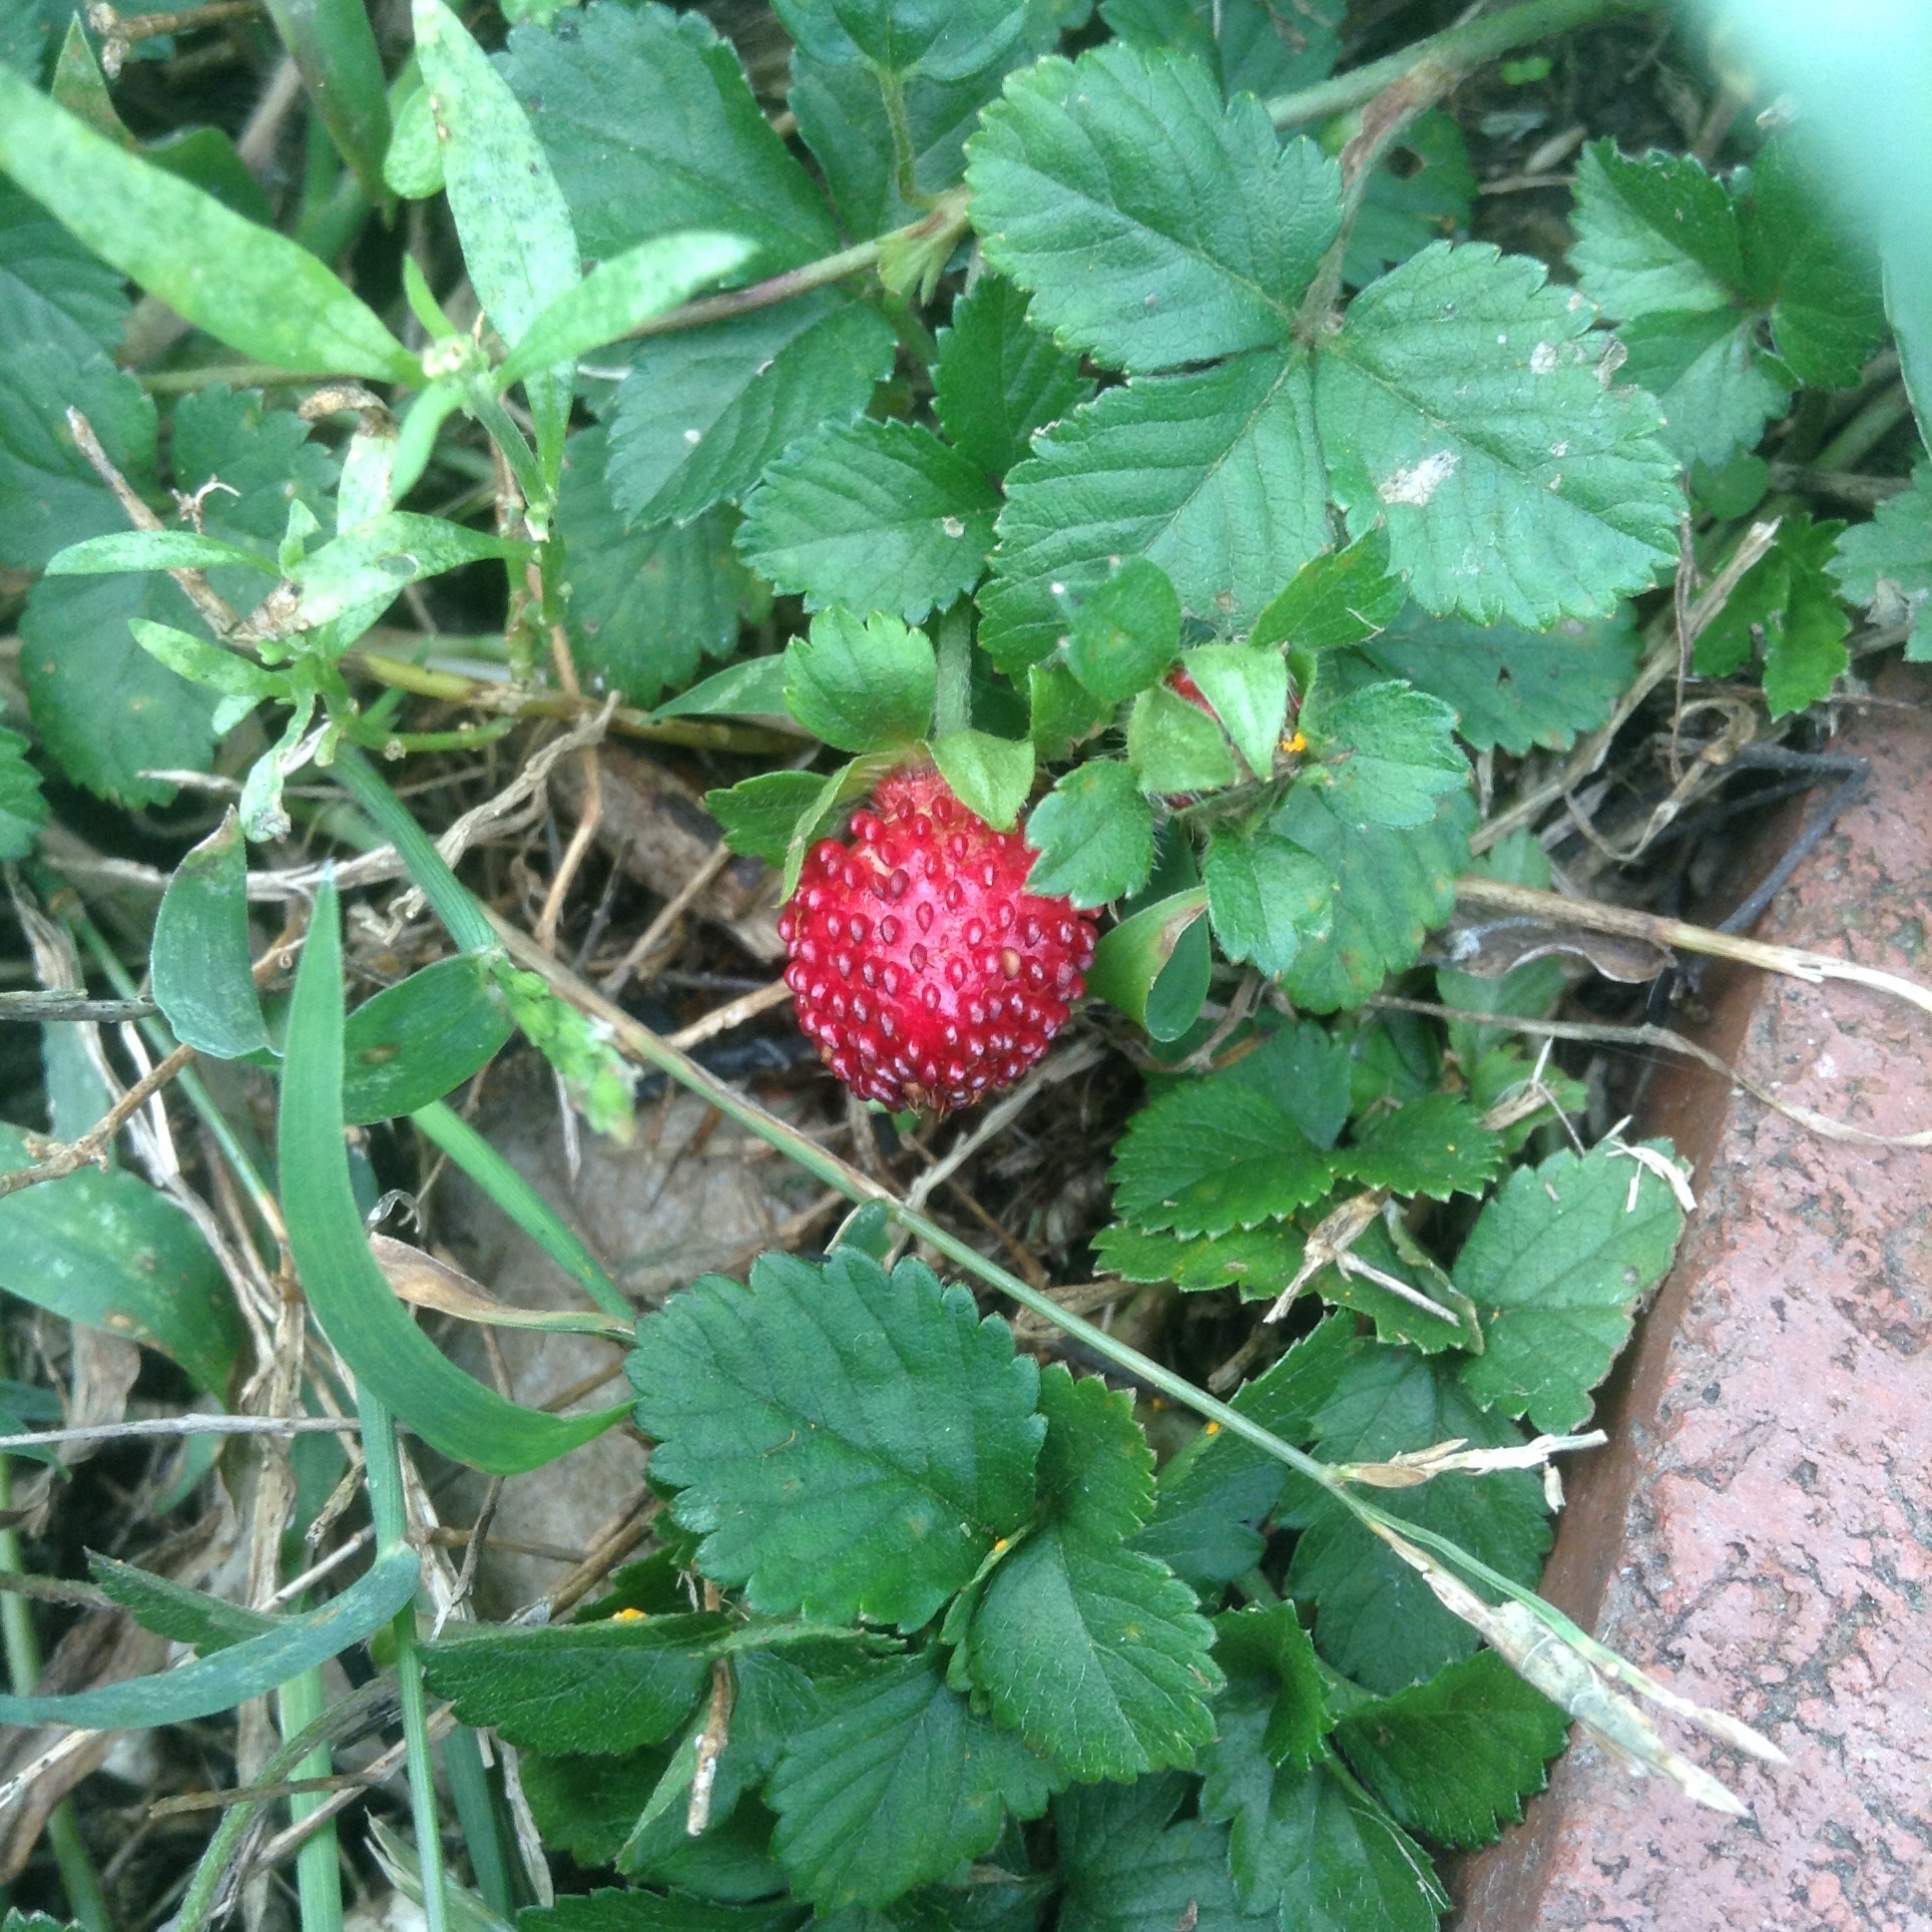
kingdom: Plantae
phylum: Tracheophyta
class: Magnoliopsida
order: Rosales
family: Rosaceae
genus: Potentilla
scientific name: Potentilla indica
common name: Yellow-flowered strawberry
